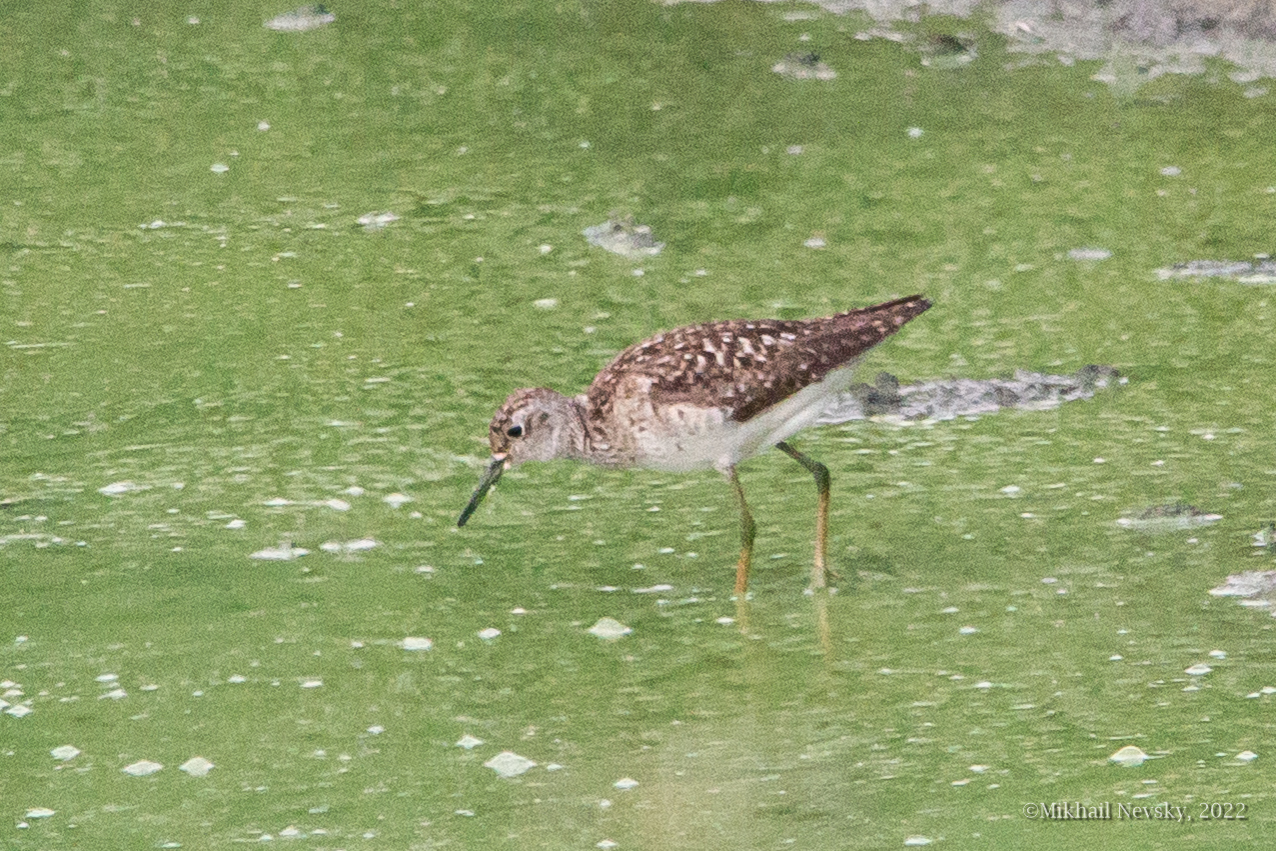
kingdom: Animalia
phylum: Chordata
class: Aves
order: Charadriiformes
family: Scolopacidae
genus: Tringa
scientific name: Tringa glareola
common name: Wood sandpiper
